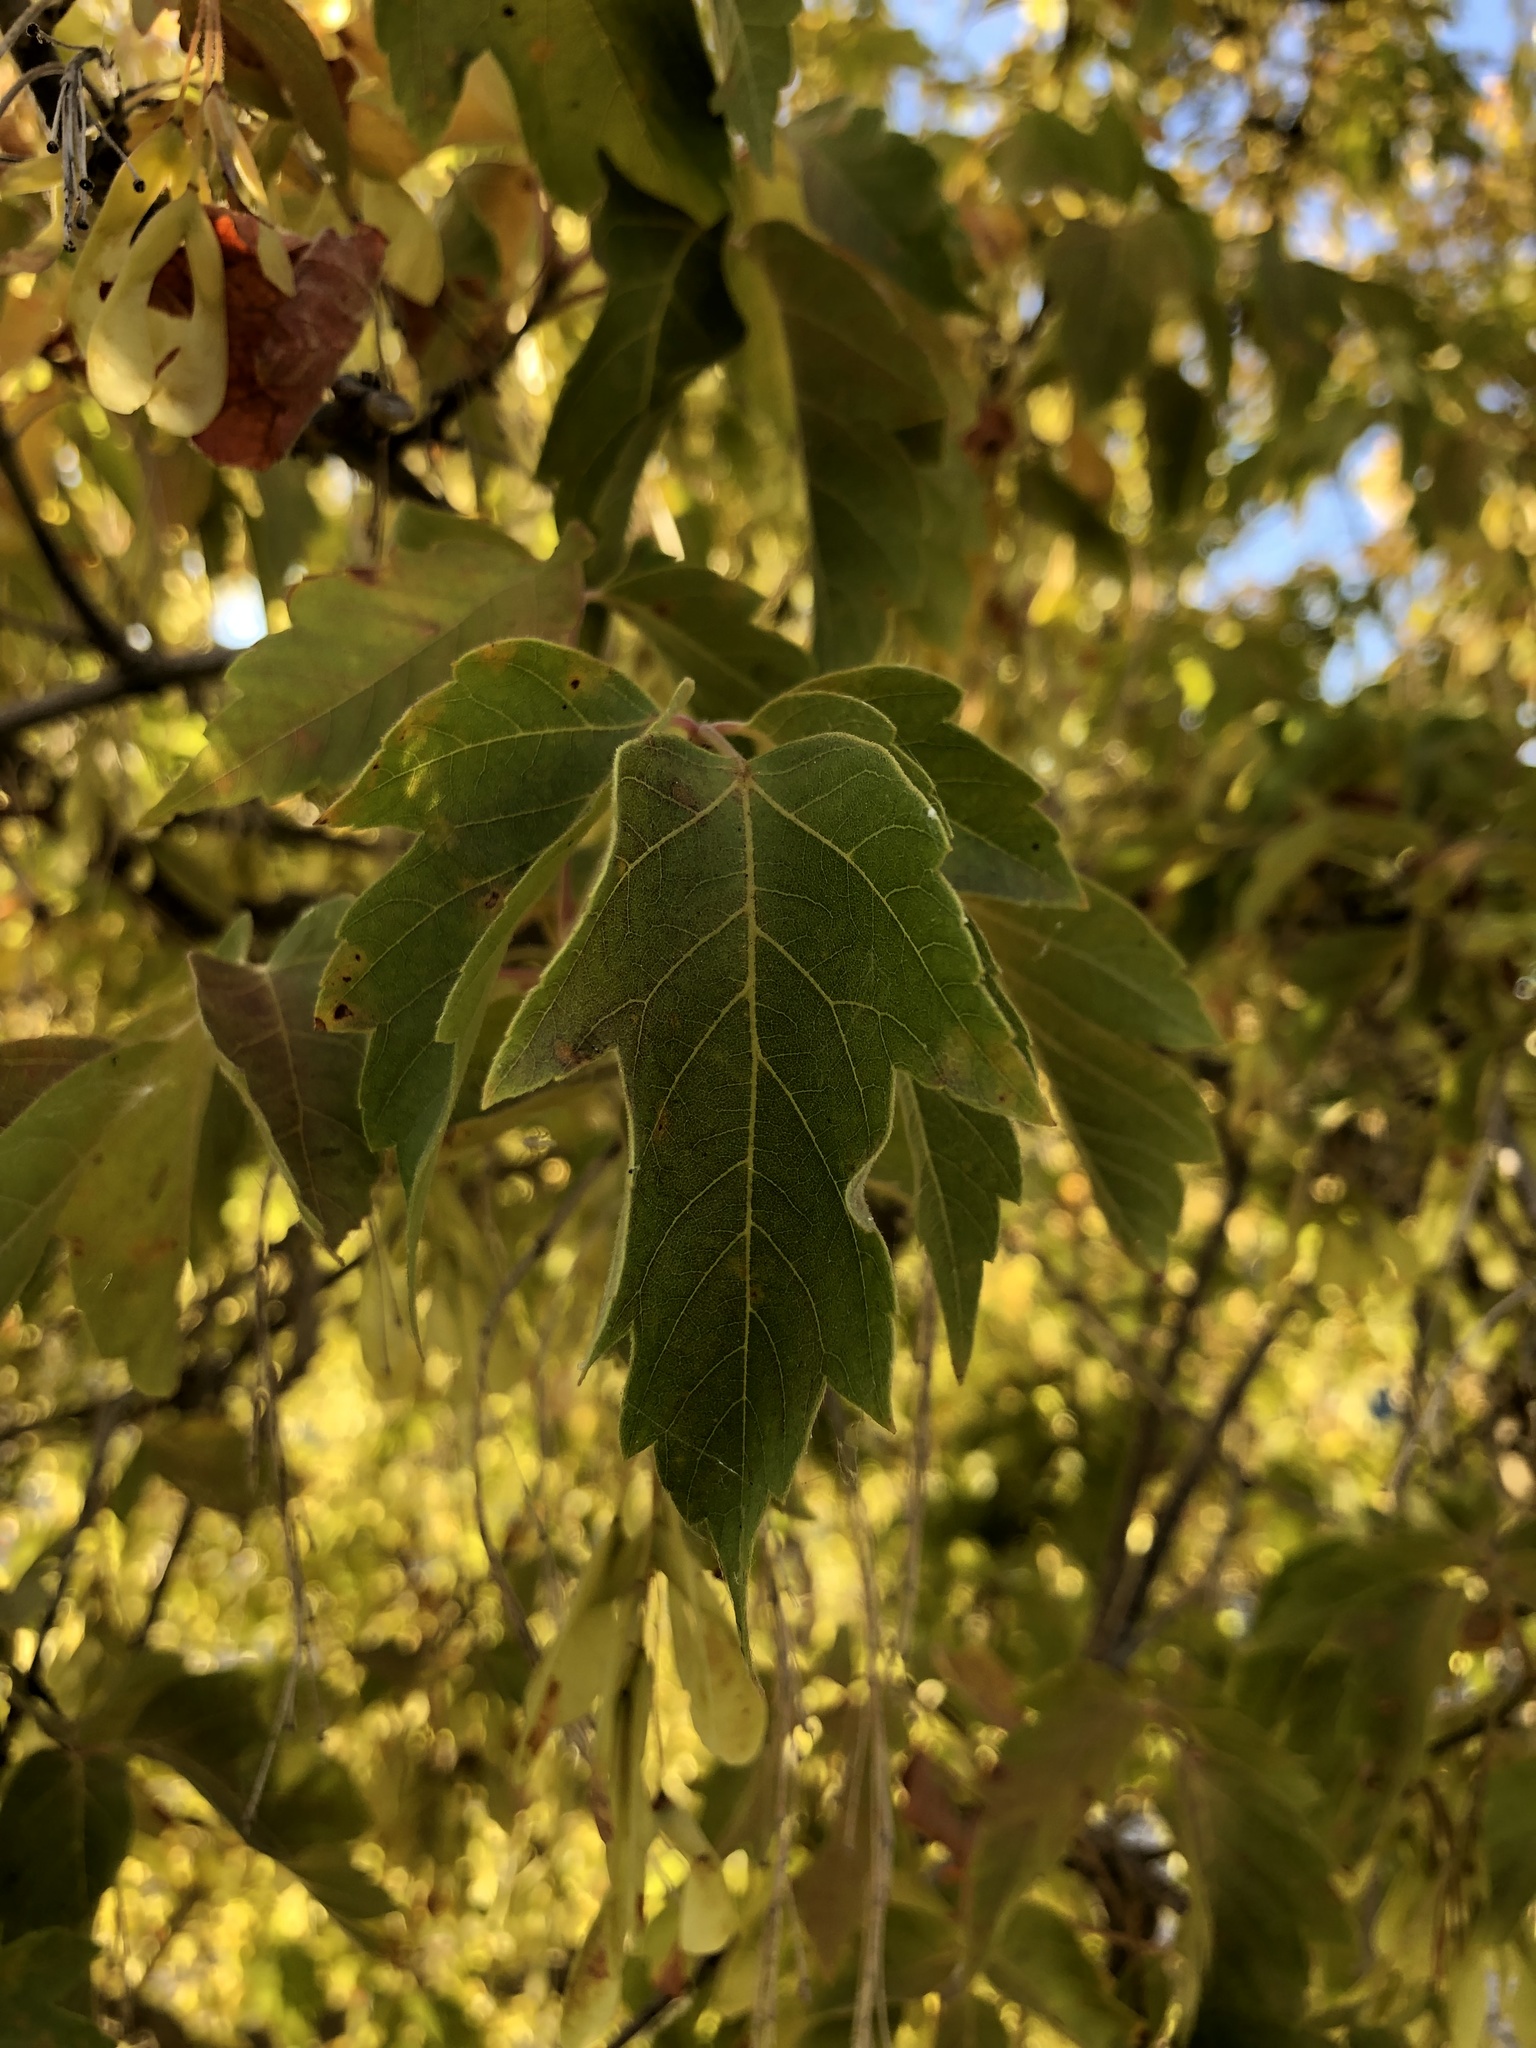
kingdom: Plantae
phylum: Tracheophyta
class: Magnoliopsida
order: Sapindales
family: Sapindaceae
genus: Acer
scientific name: Acer negundo
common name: Ashleaf maple
